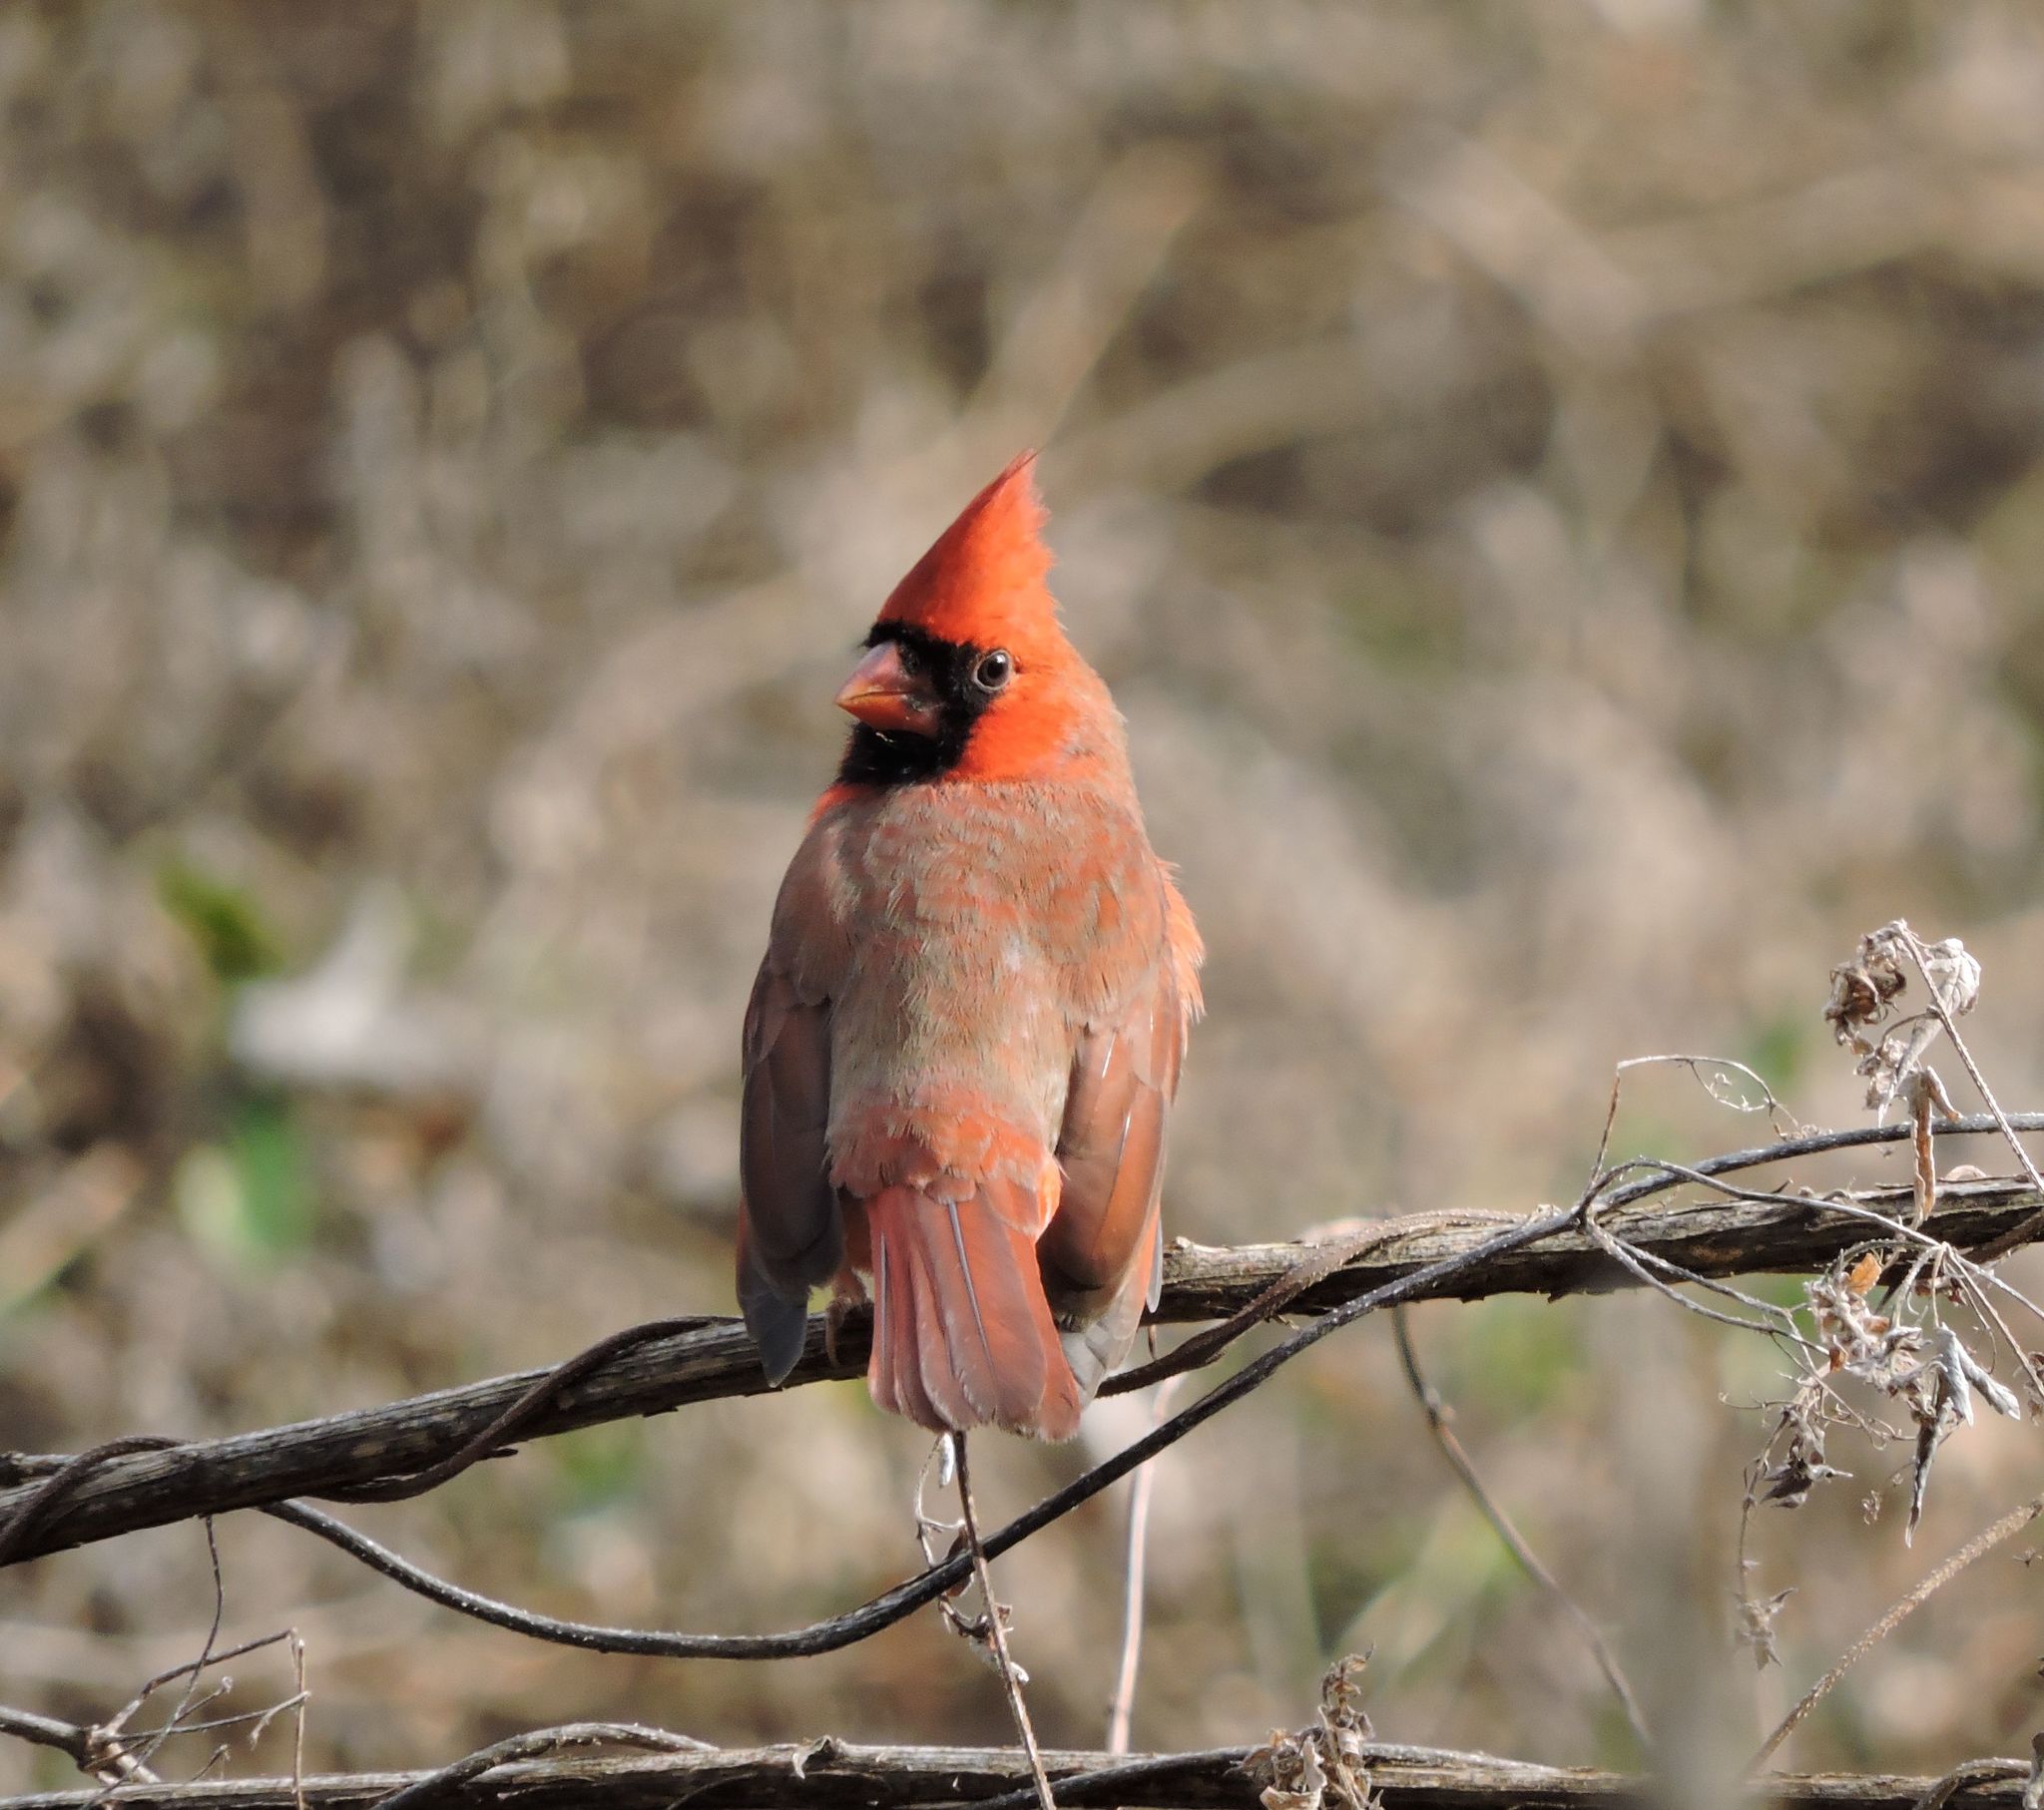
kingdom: Animalia
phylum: Chordata
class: Aves
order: Passeriformes
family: Cardinalidae
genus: Cardinalis
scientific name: Cardinalis cardinalis
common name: Northern cardinal
